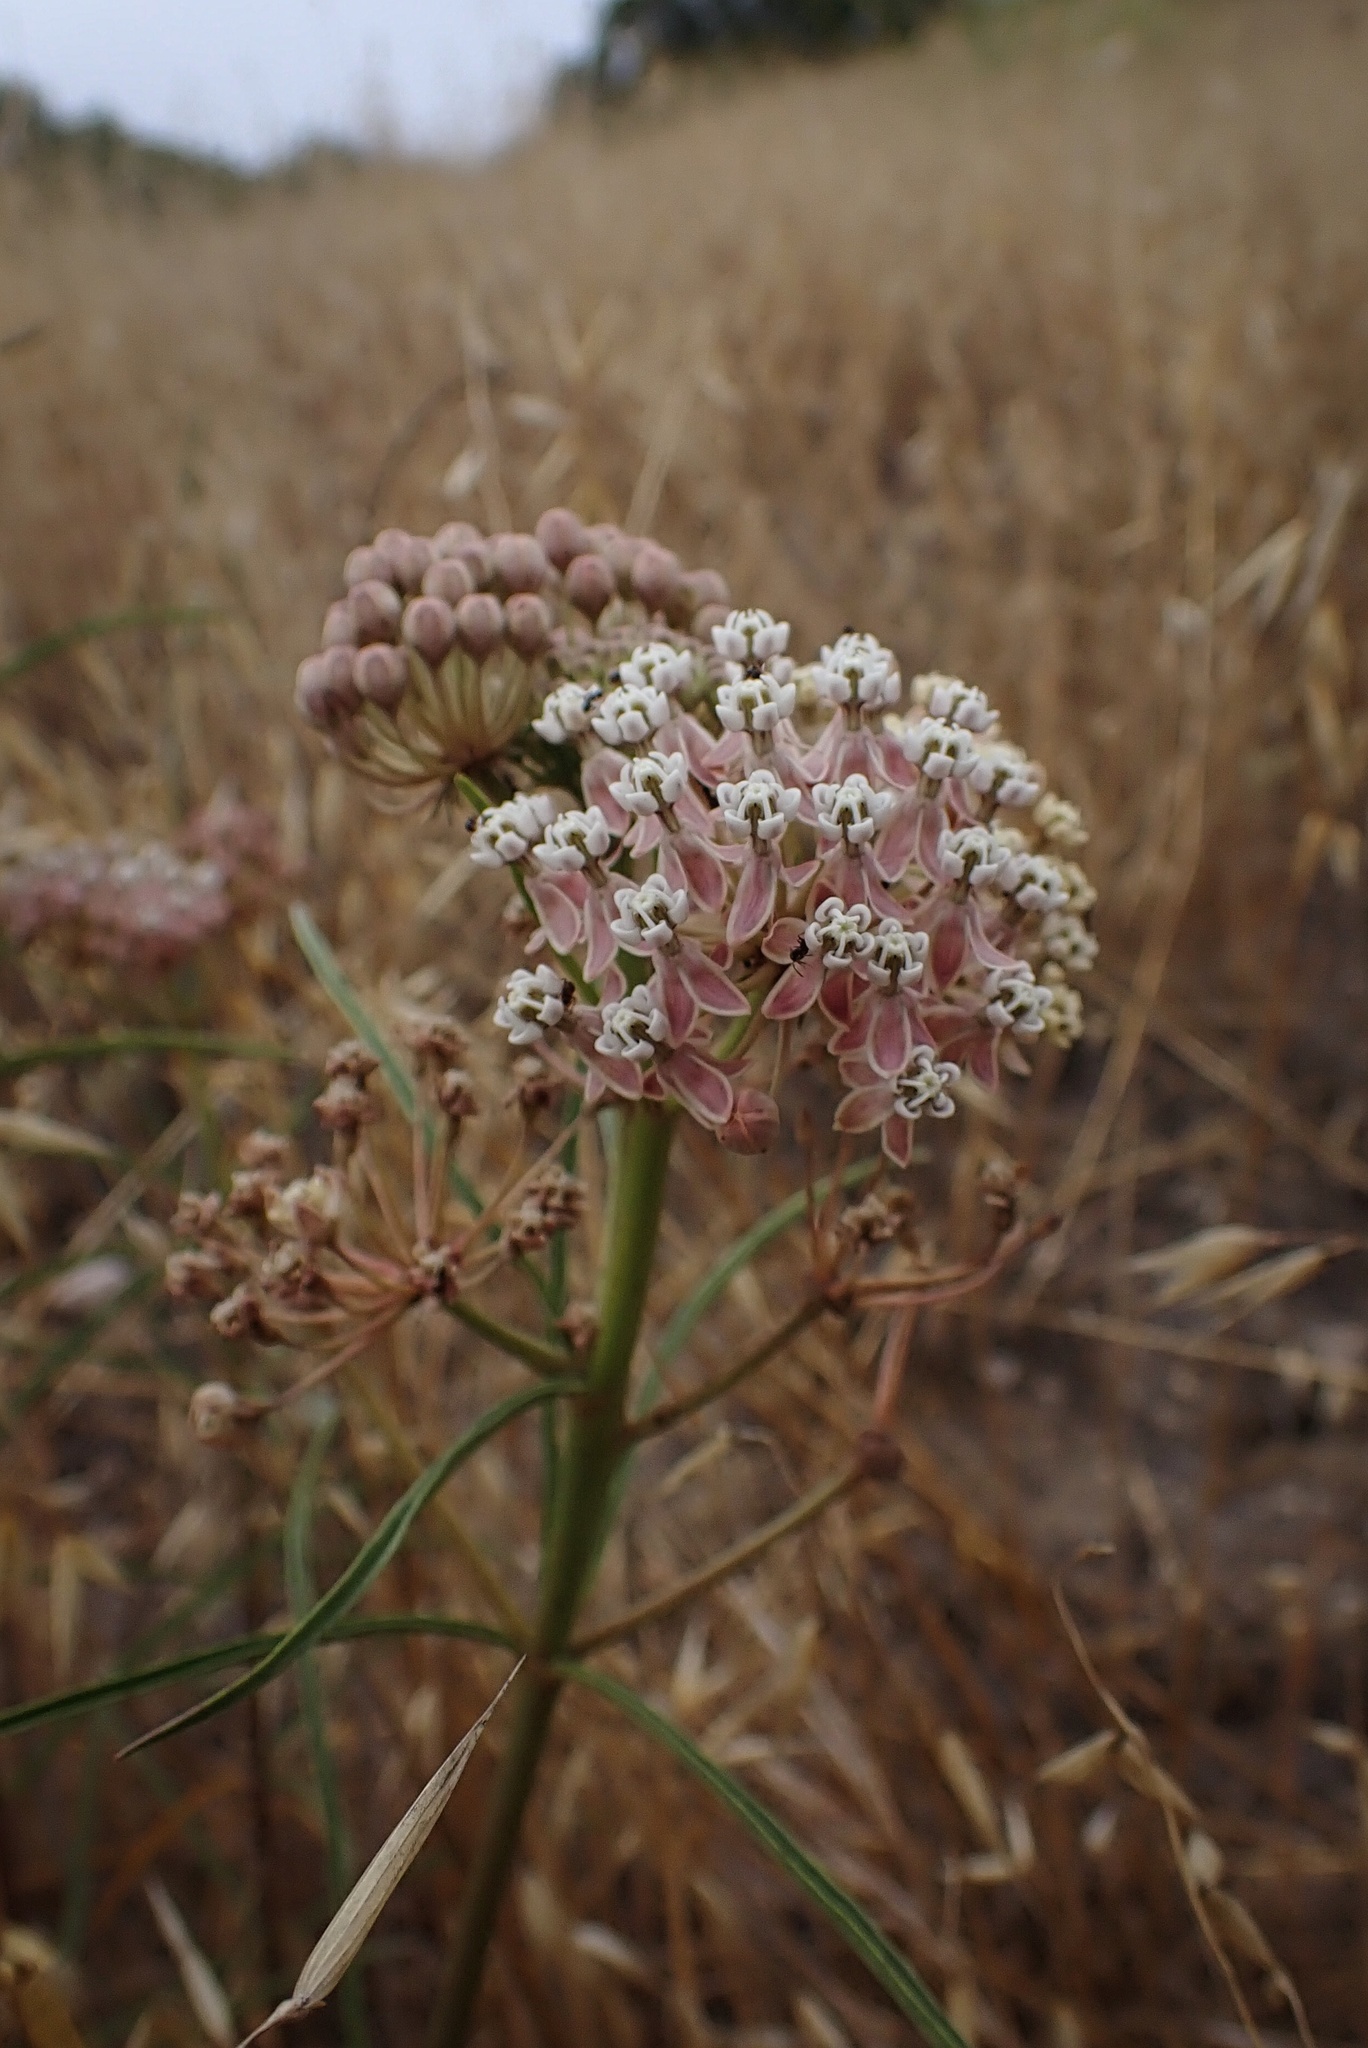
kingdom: Plantae
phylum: Tracheophyta
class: Magnoliopsida
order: Gentianales
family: Apocynaceae
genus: Asclepias
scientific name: Asclepias fascicularis
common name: Mexican milkweed
